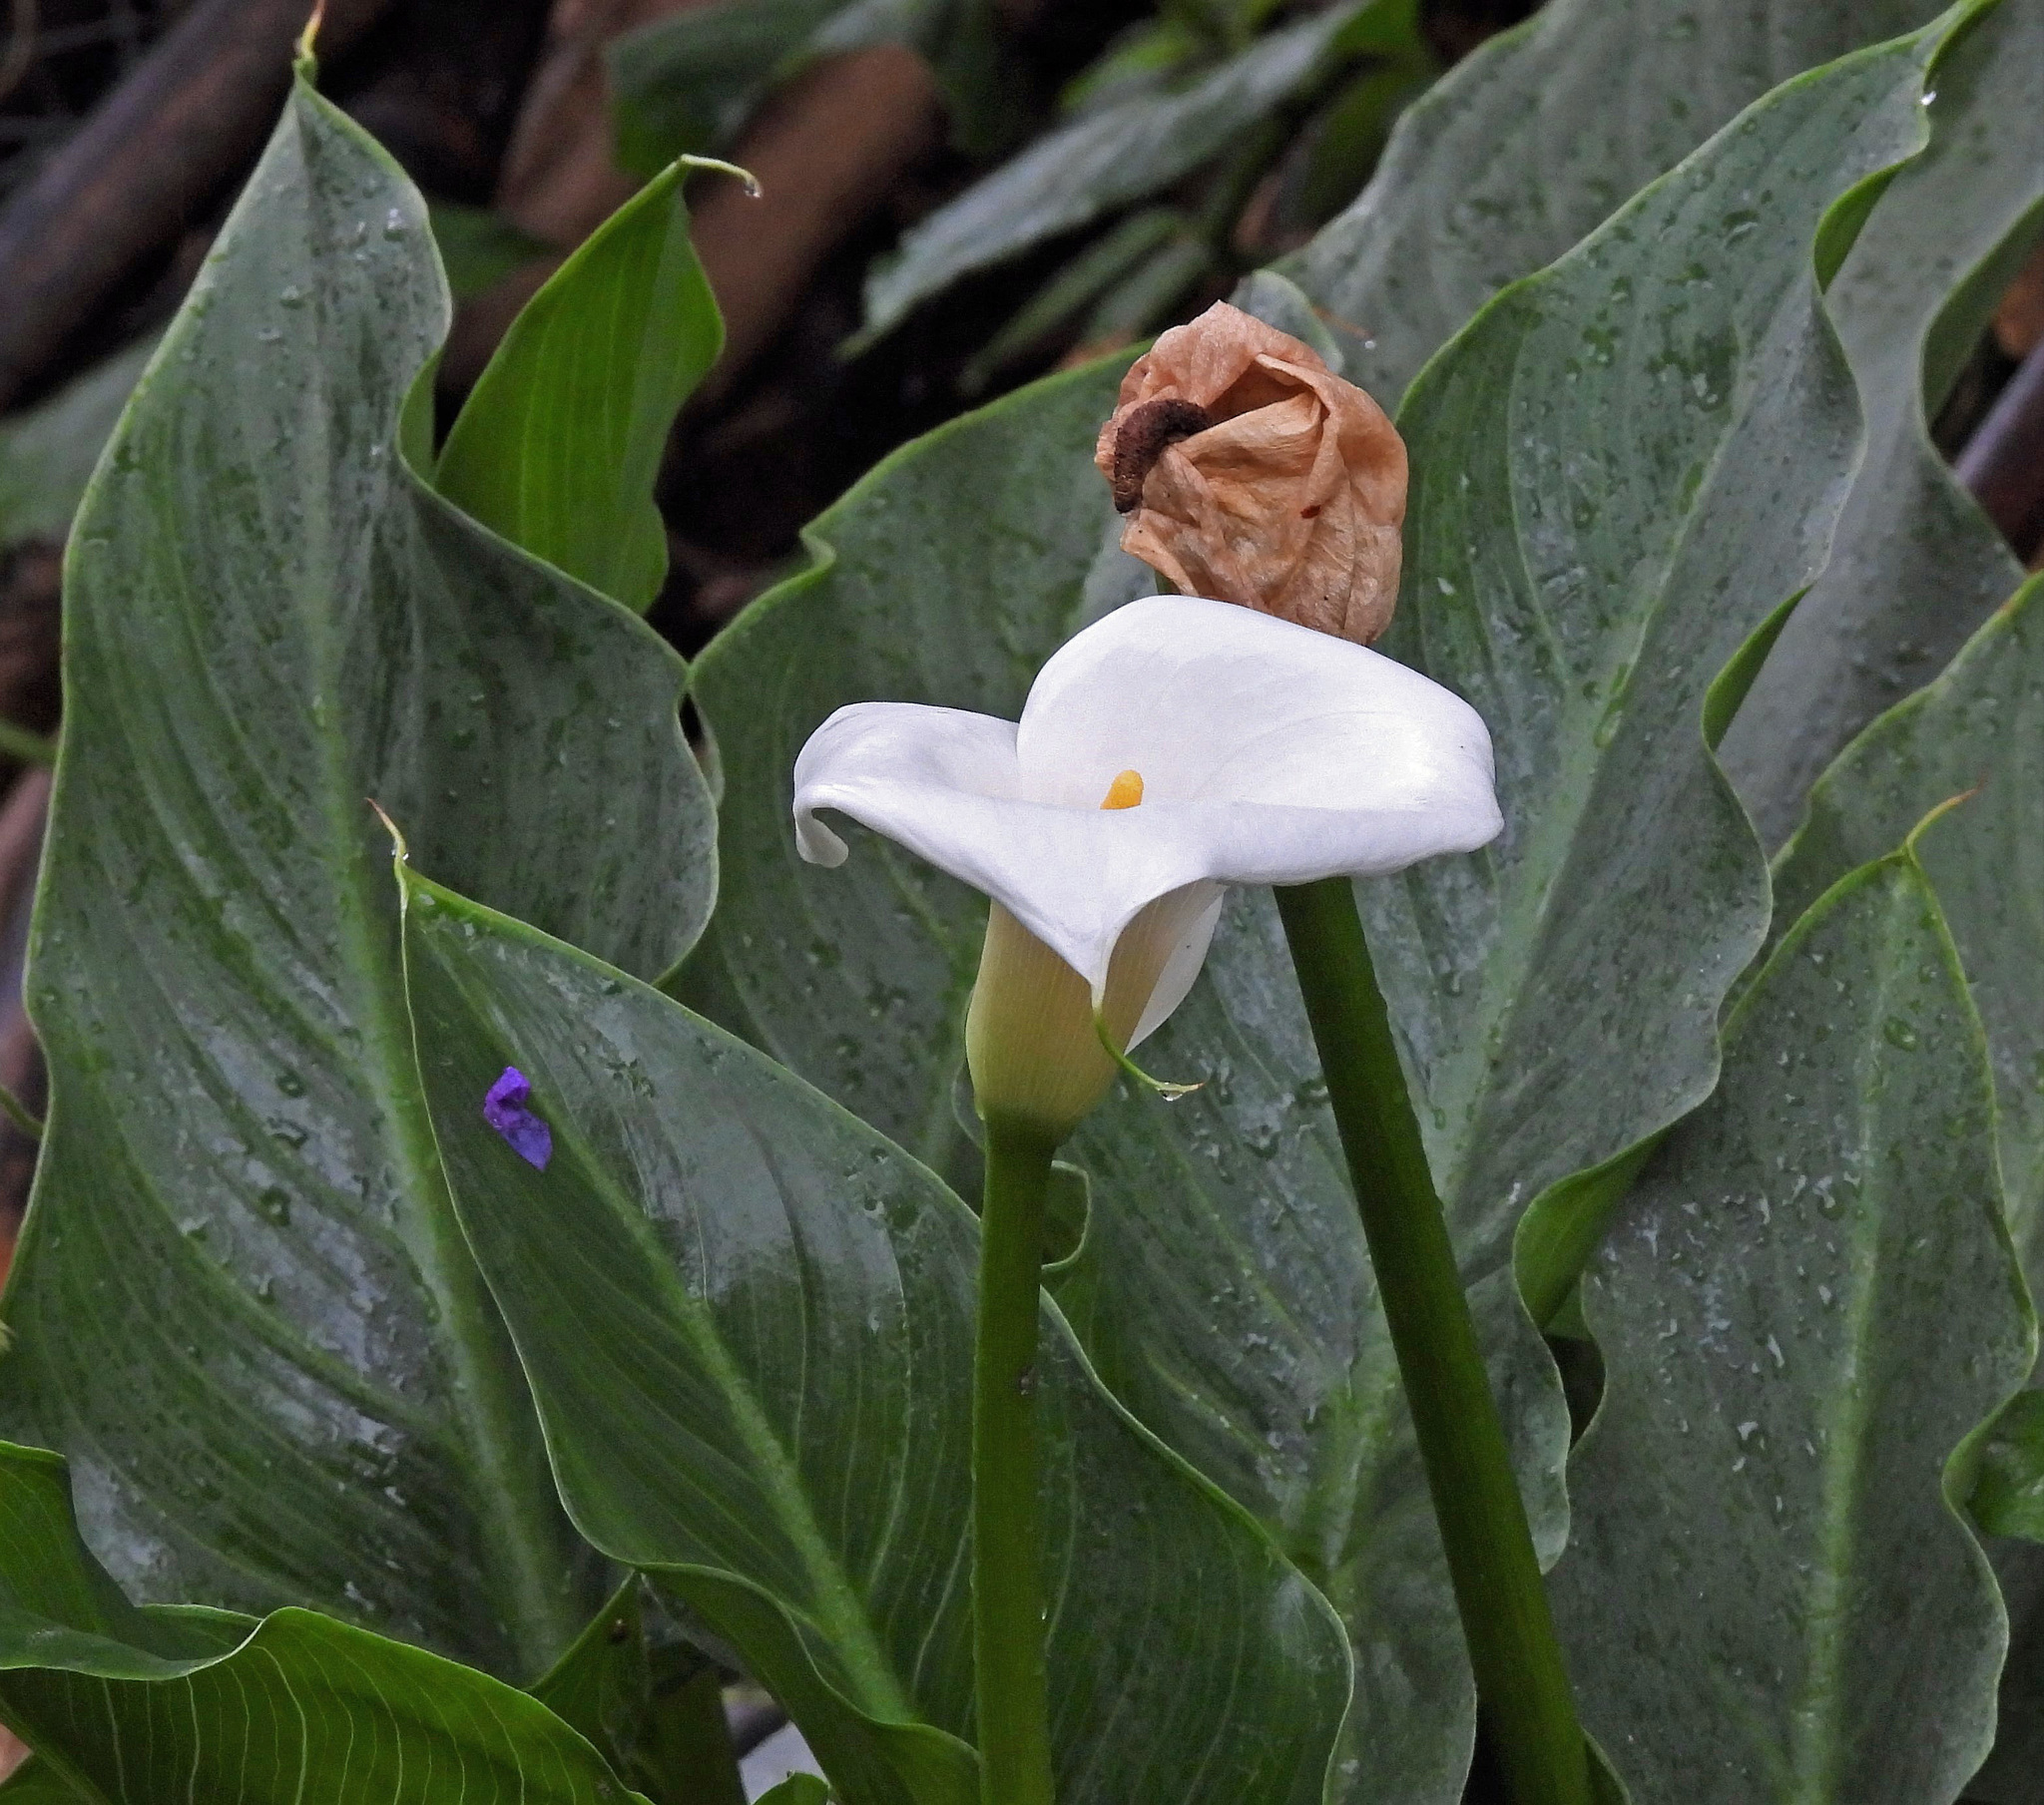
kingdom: Plantae
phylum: Tracheophyta
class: Liliopsida
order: Alismatales
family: Araceae
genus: Zantedeschia
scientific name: Zantedeschia aethiopica
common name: Altar-lily
